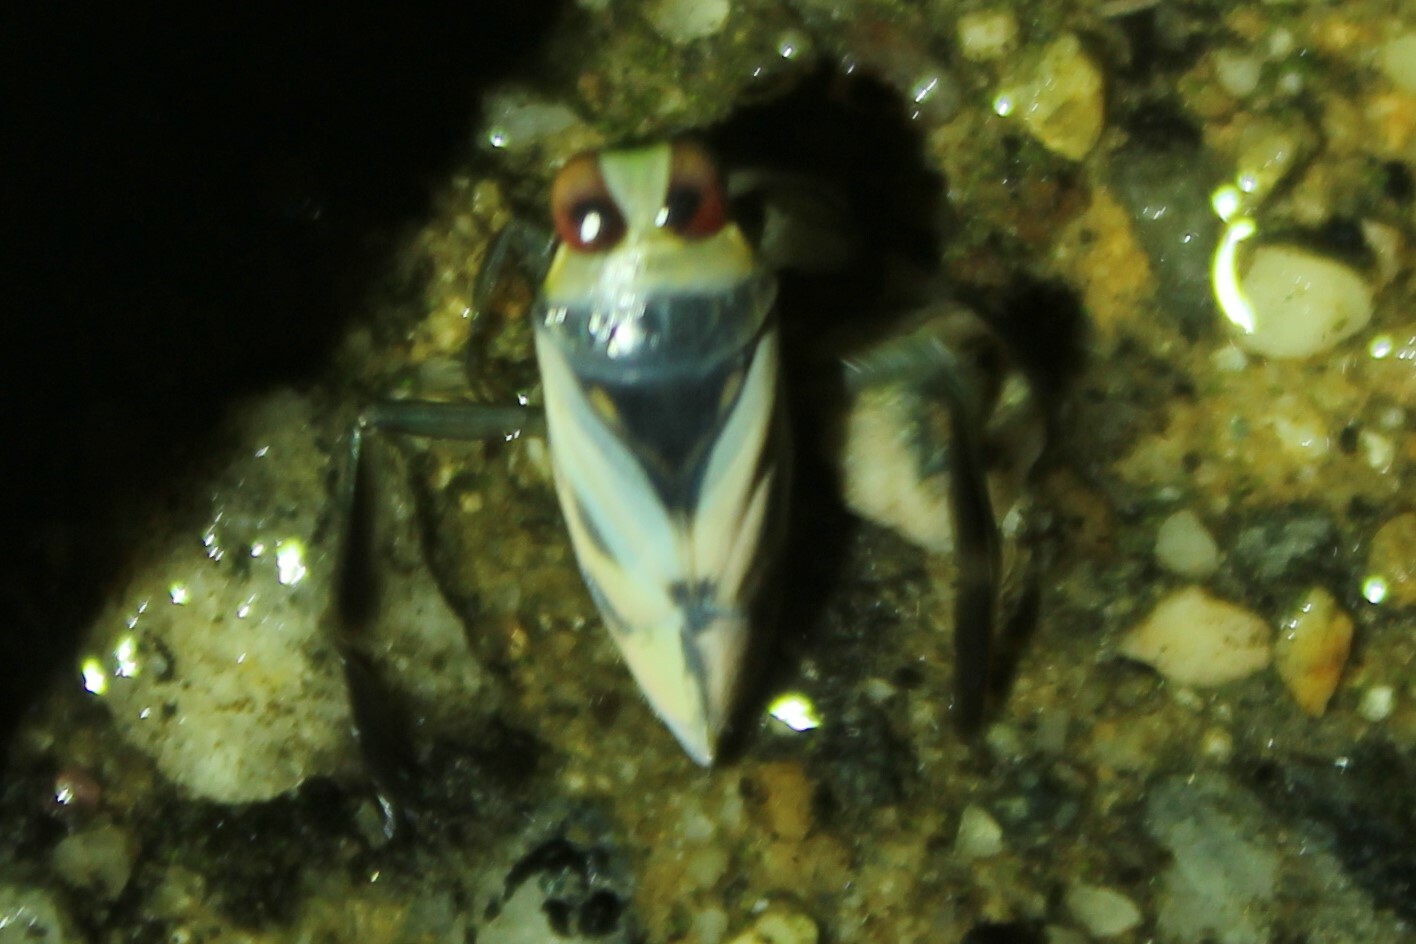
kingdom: Animalia
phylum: Arthropoda
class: Insecta
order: Hemiptera
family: Notonectidae
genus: Notonecta
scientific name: Notonecta undulata
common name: Grousewinged backswimmer
